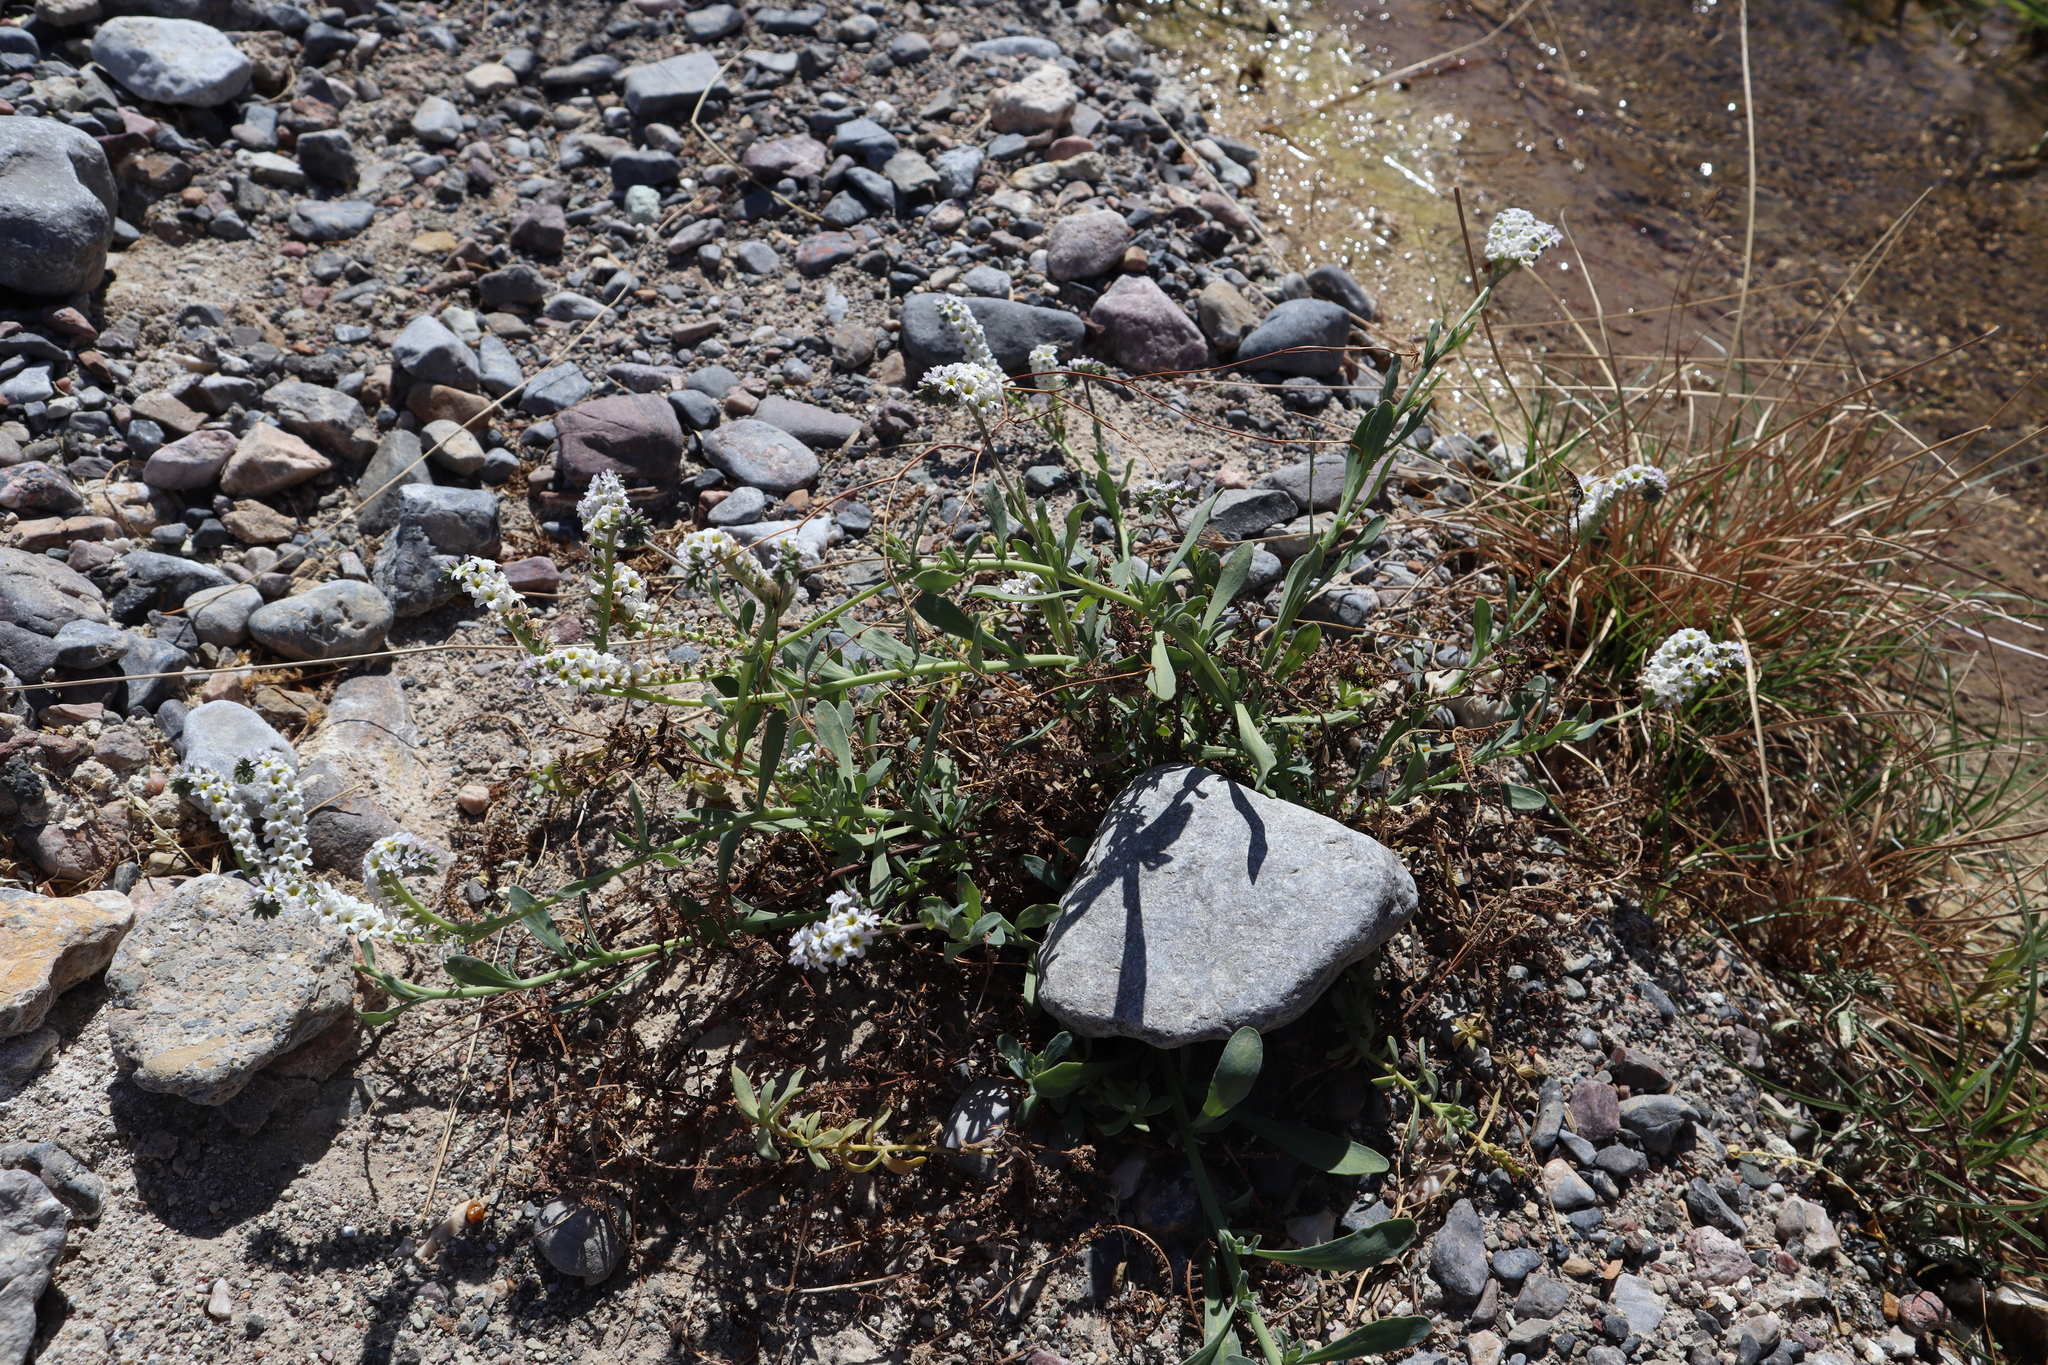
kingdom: Plantae
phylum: Tracheophyta
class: Magnoliopsida
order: Boraginales
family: Heliotropiaceae
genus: Heliotropium
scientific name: Heliotropium curassavicum
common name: Seaside heliotrope
